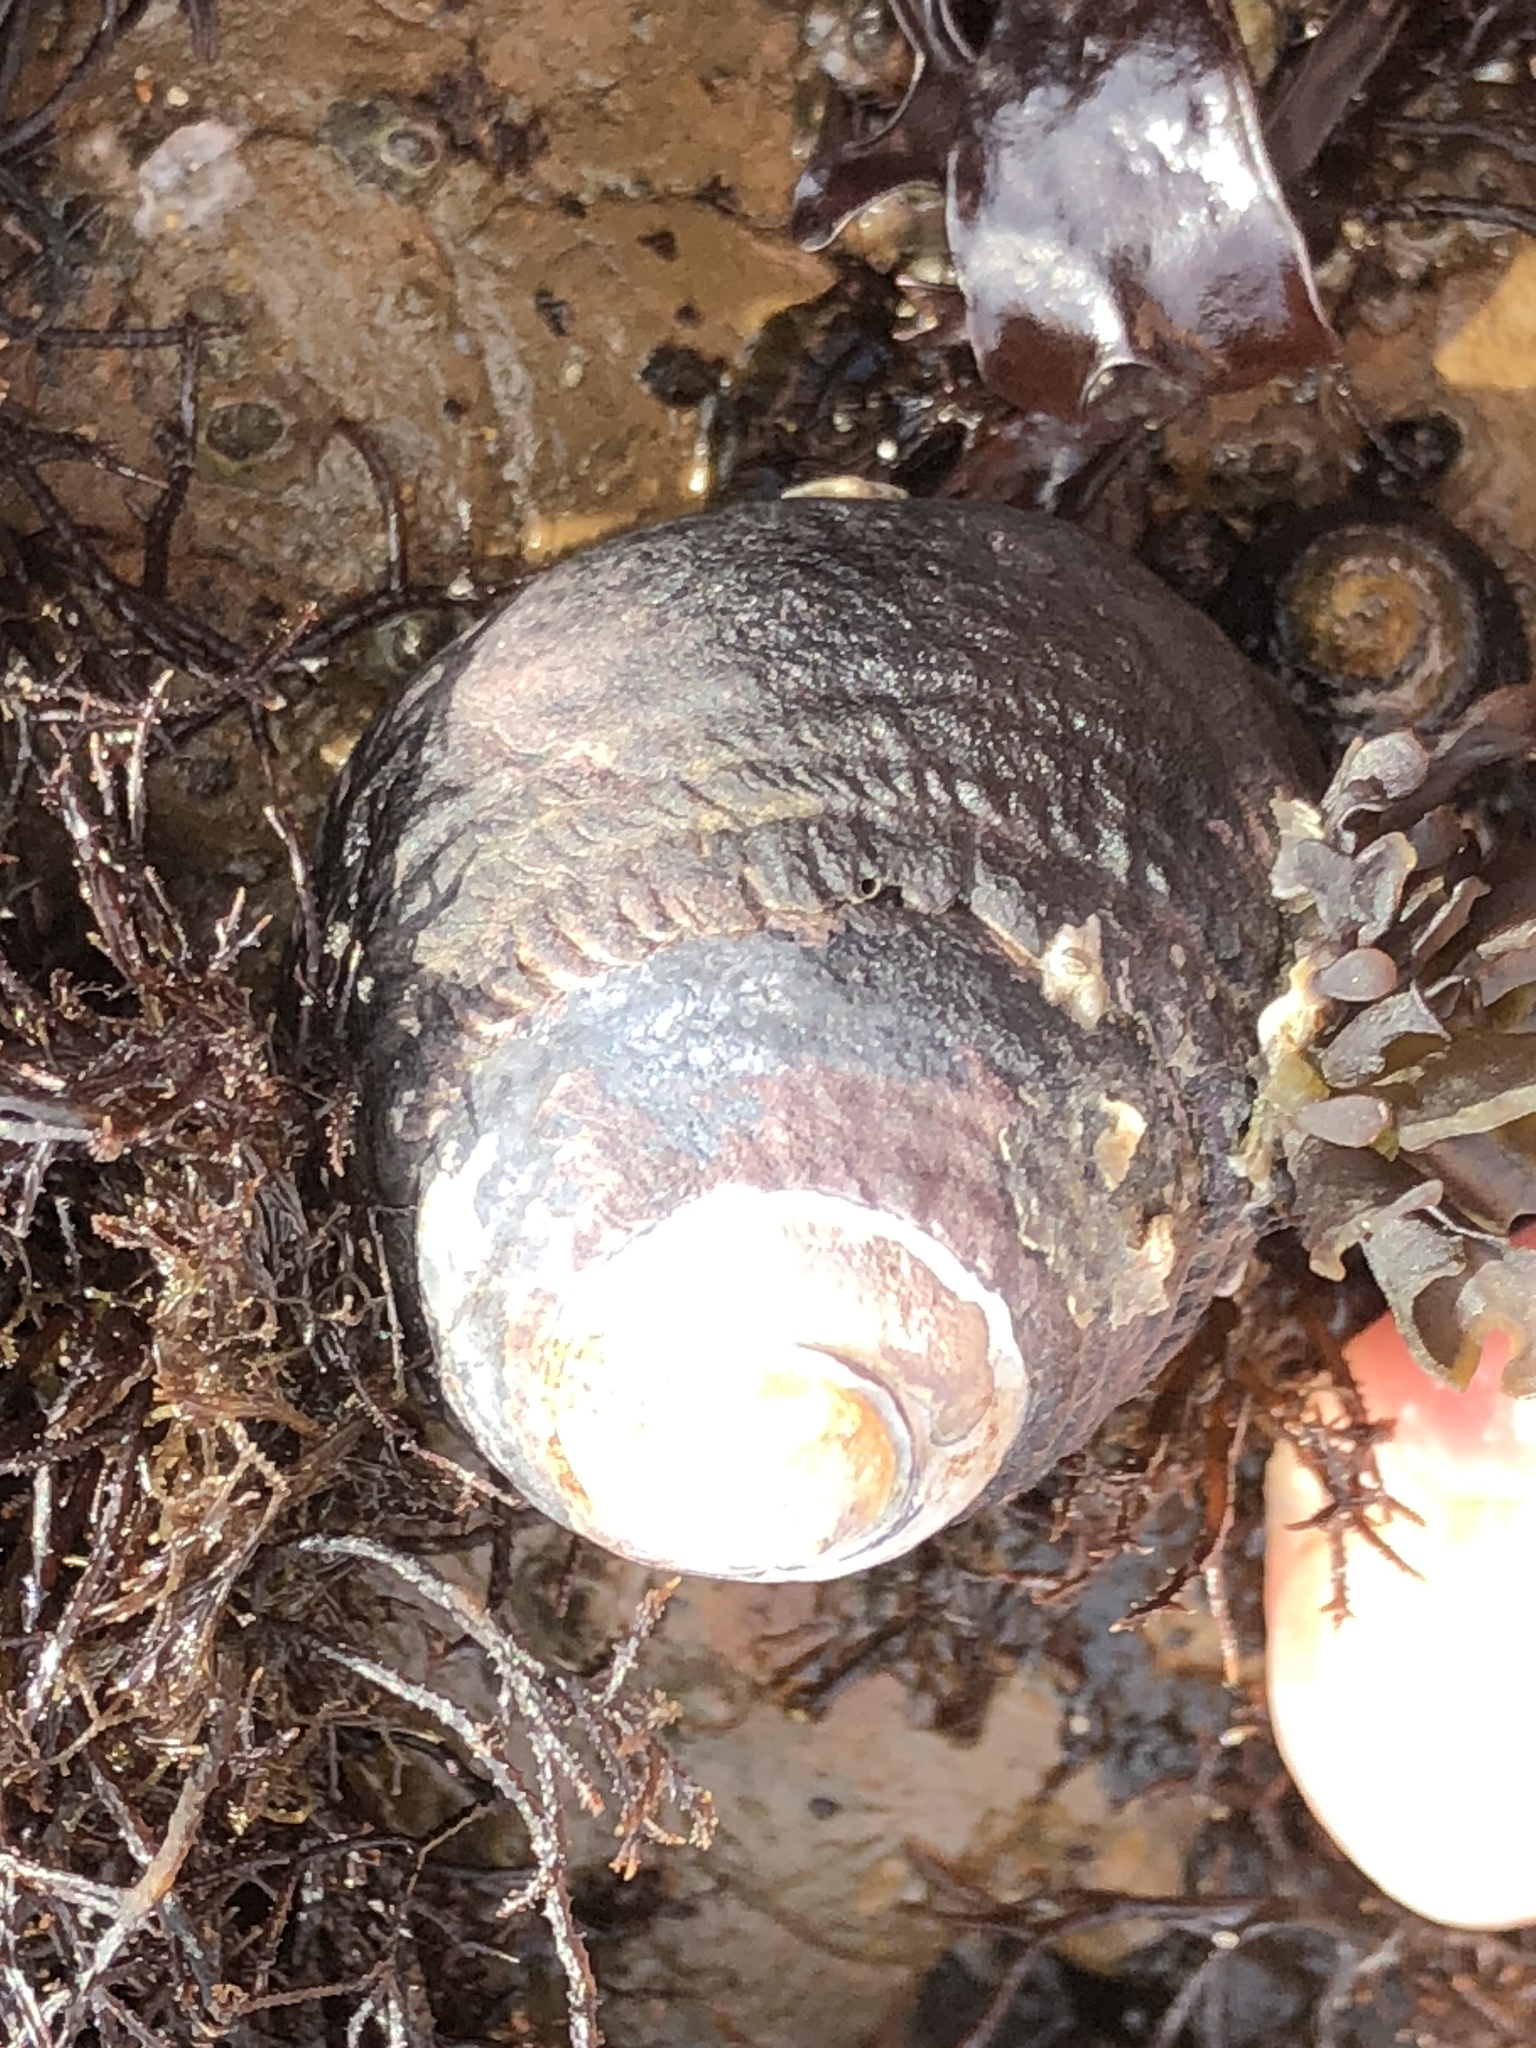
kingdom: Animalia
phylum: Mollusca
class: Gastropoda
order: Trochida
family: Tegulidae
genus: Tegula
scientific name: Tegula funebralis
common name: Black tegula
